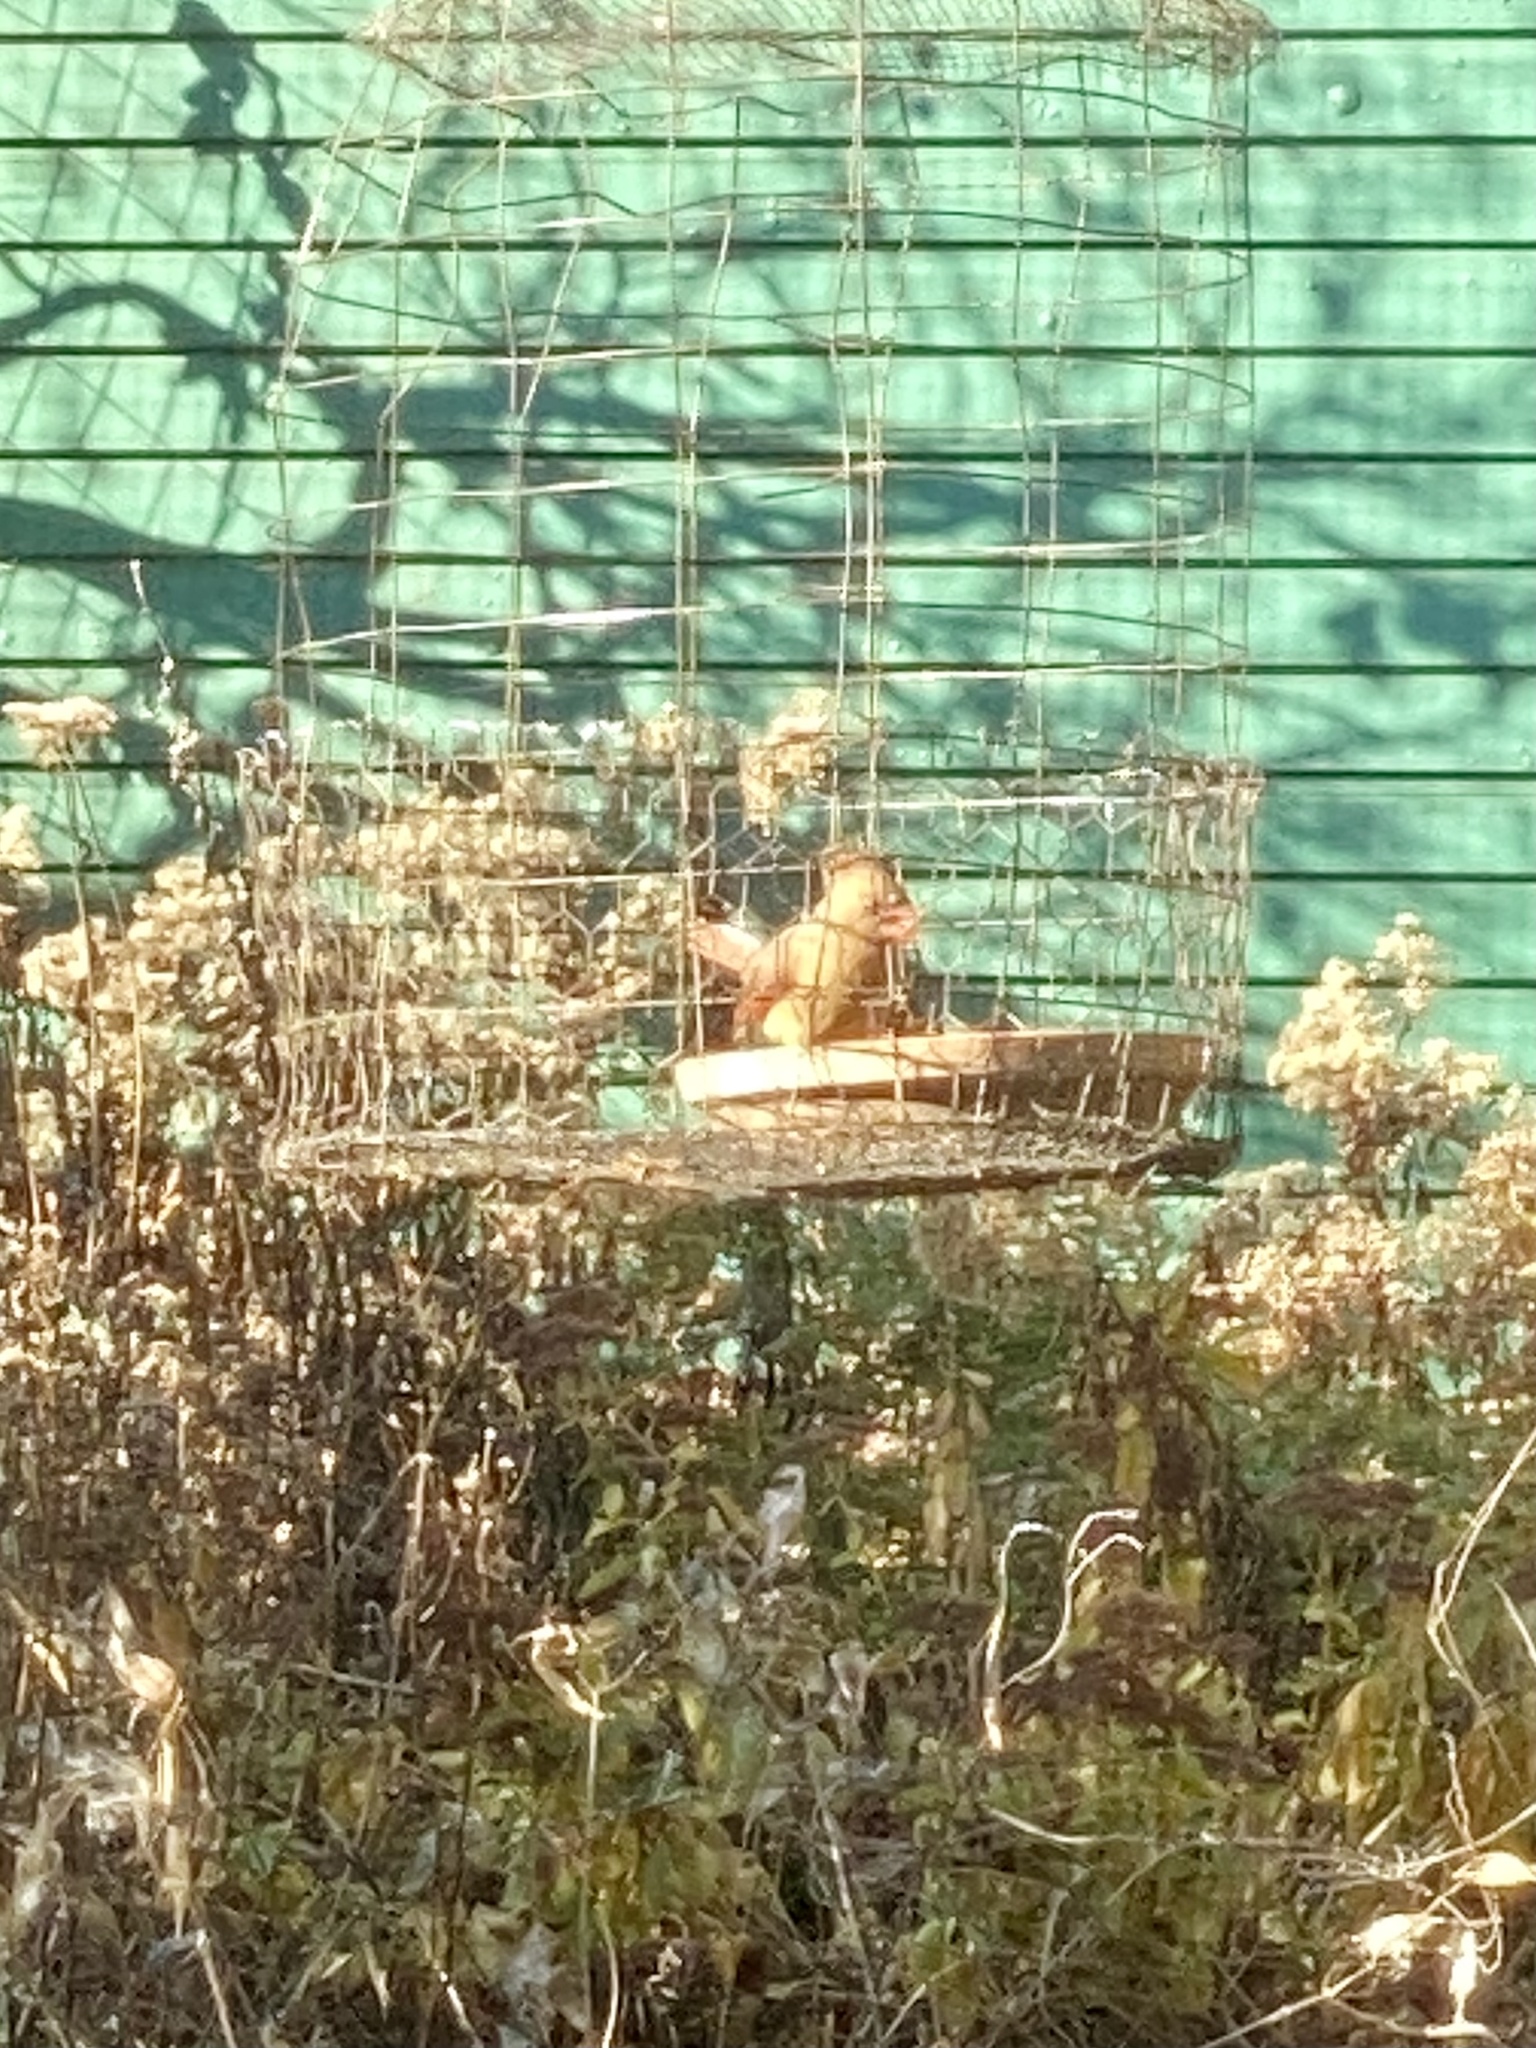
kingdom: Animalia
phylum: Chordata
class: Aves
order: Passeriformes
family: Cardinalidae
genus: Cardinalis
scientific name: Cardinalis cardinalis
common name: Northern cardinal
